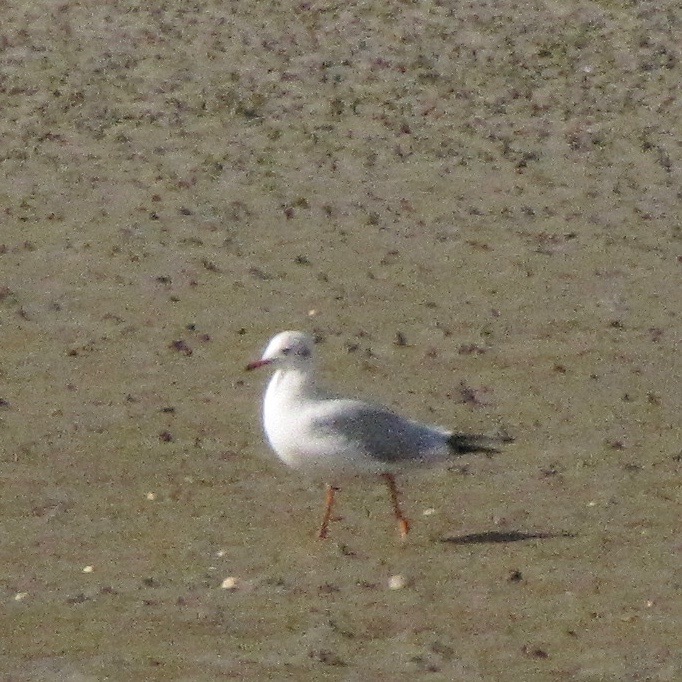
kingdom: Animalia
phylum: Chordata
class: Aves
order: Charadriiformes
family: Laridae
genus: Chroicocephalus
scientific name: Chroicocephalus ridibundus
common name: Black-headed gull
